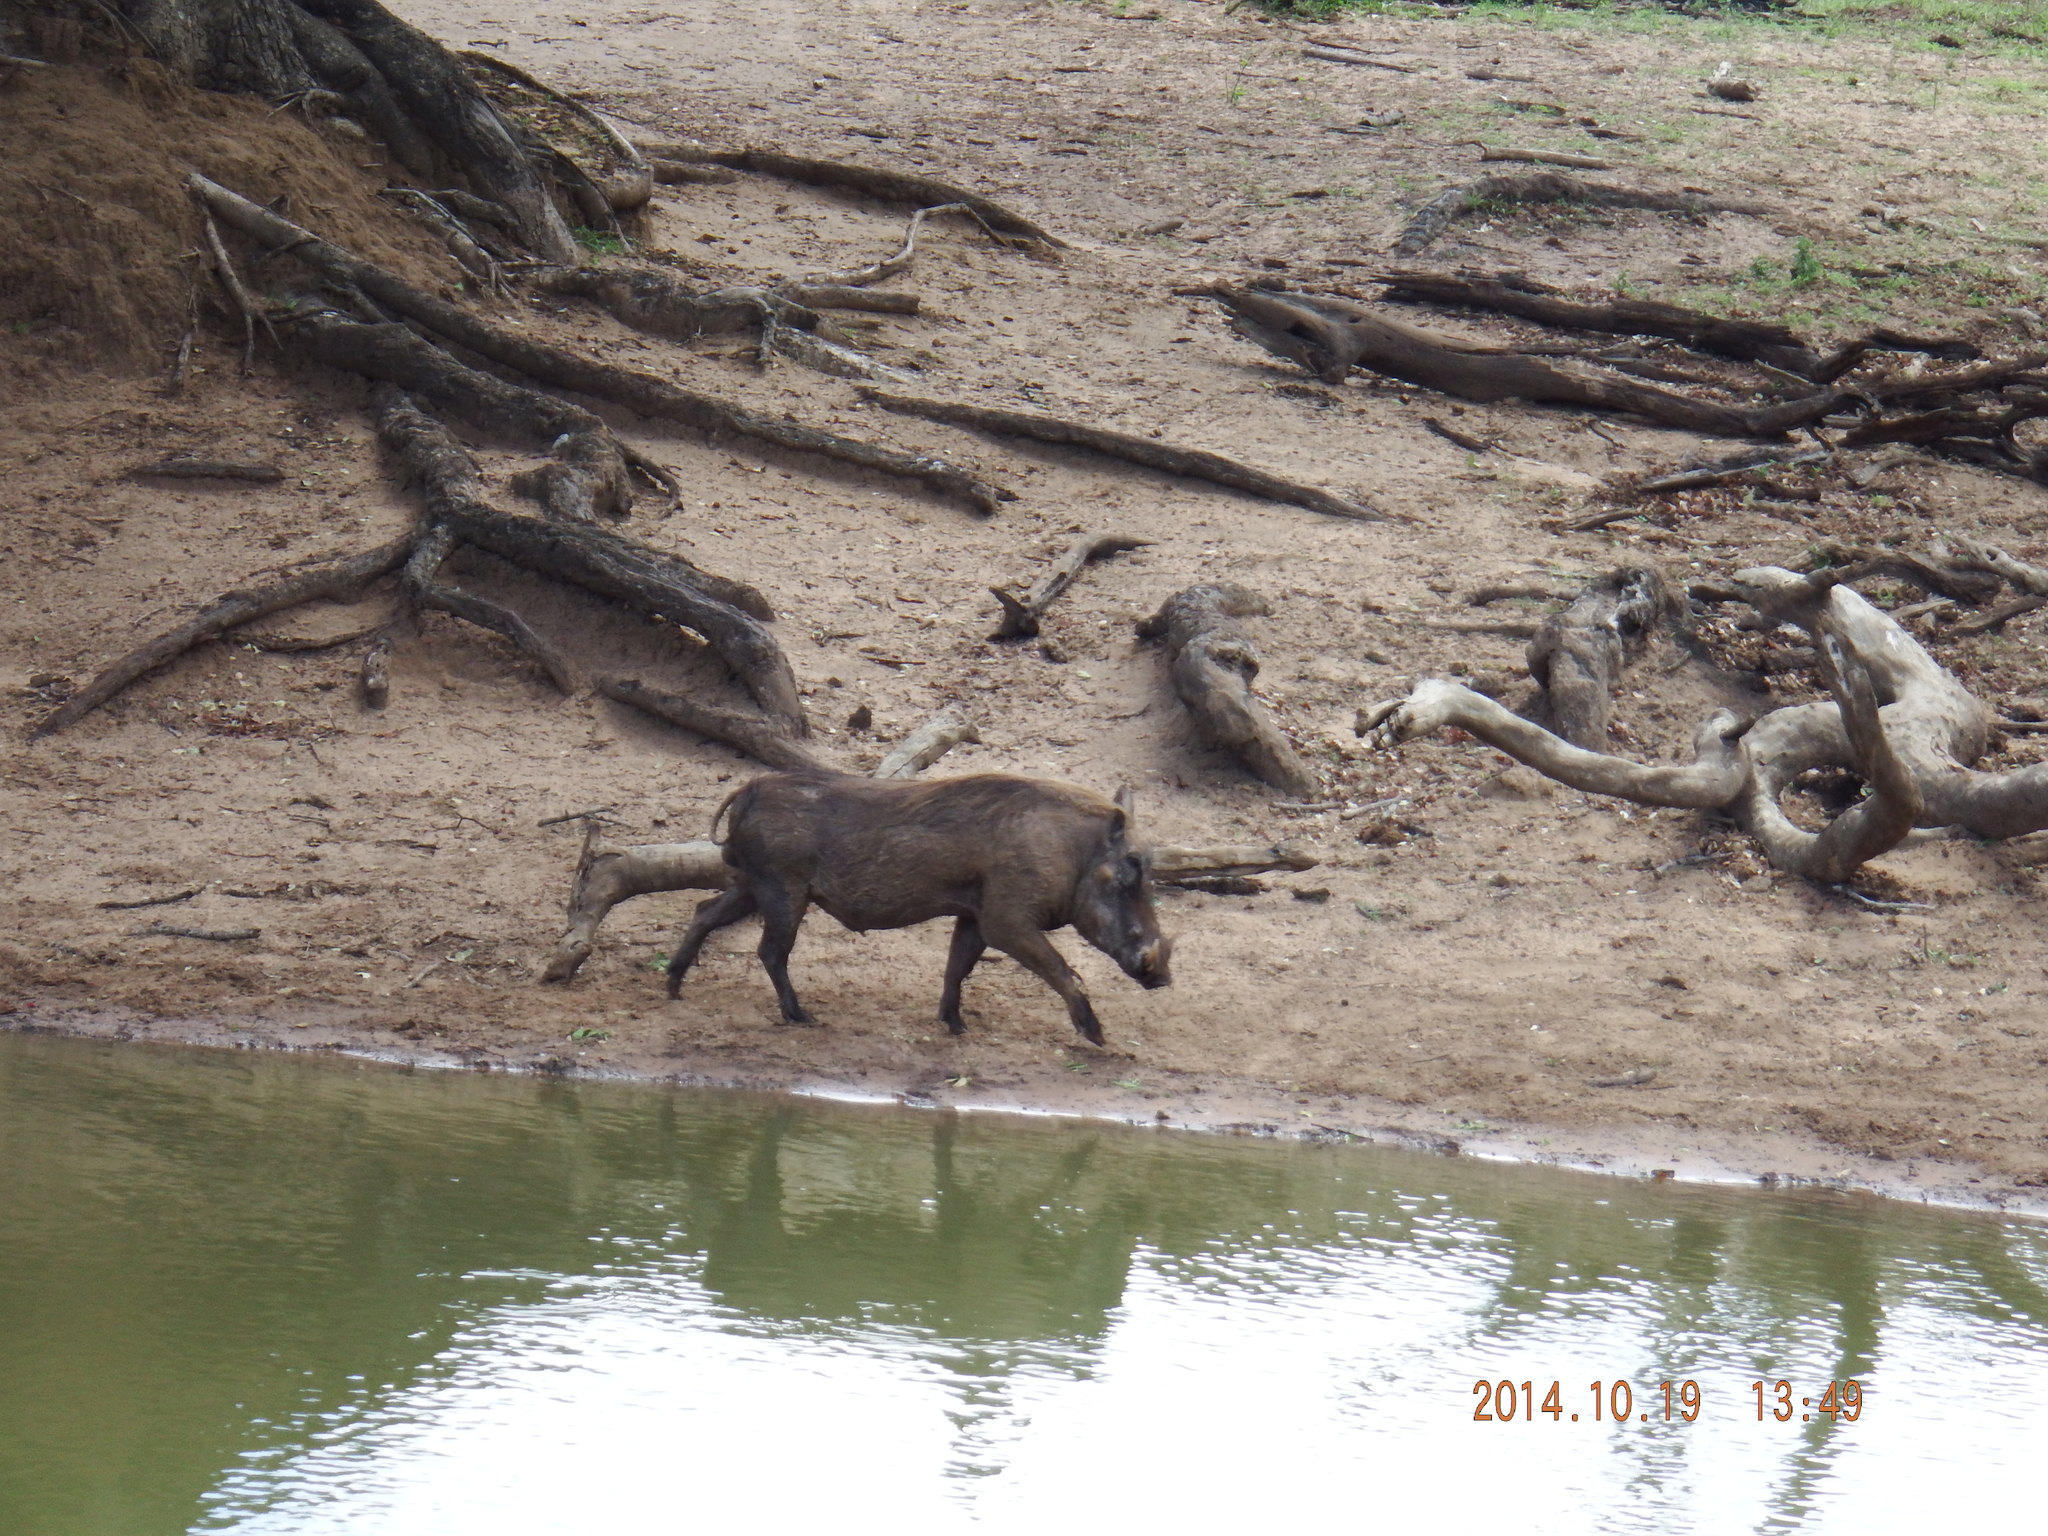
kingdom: Animalia
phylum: Chordata
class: Mammalia
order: Artiodactyla
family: Suidae
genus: Phacochoerus
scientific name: Phacochoerus africanus
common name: Common warthog
